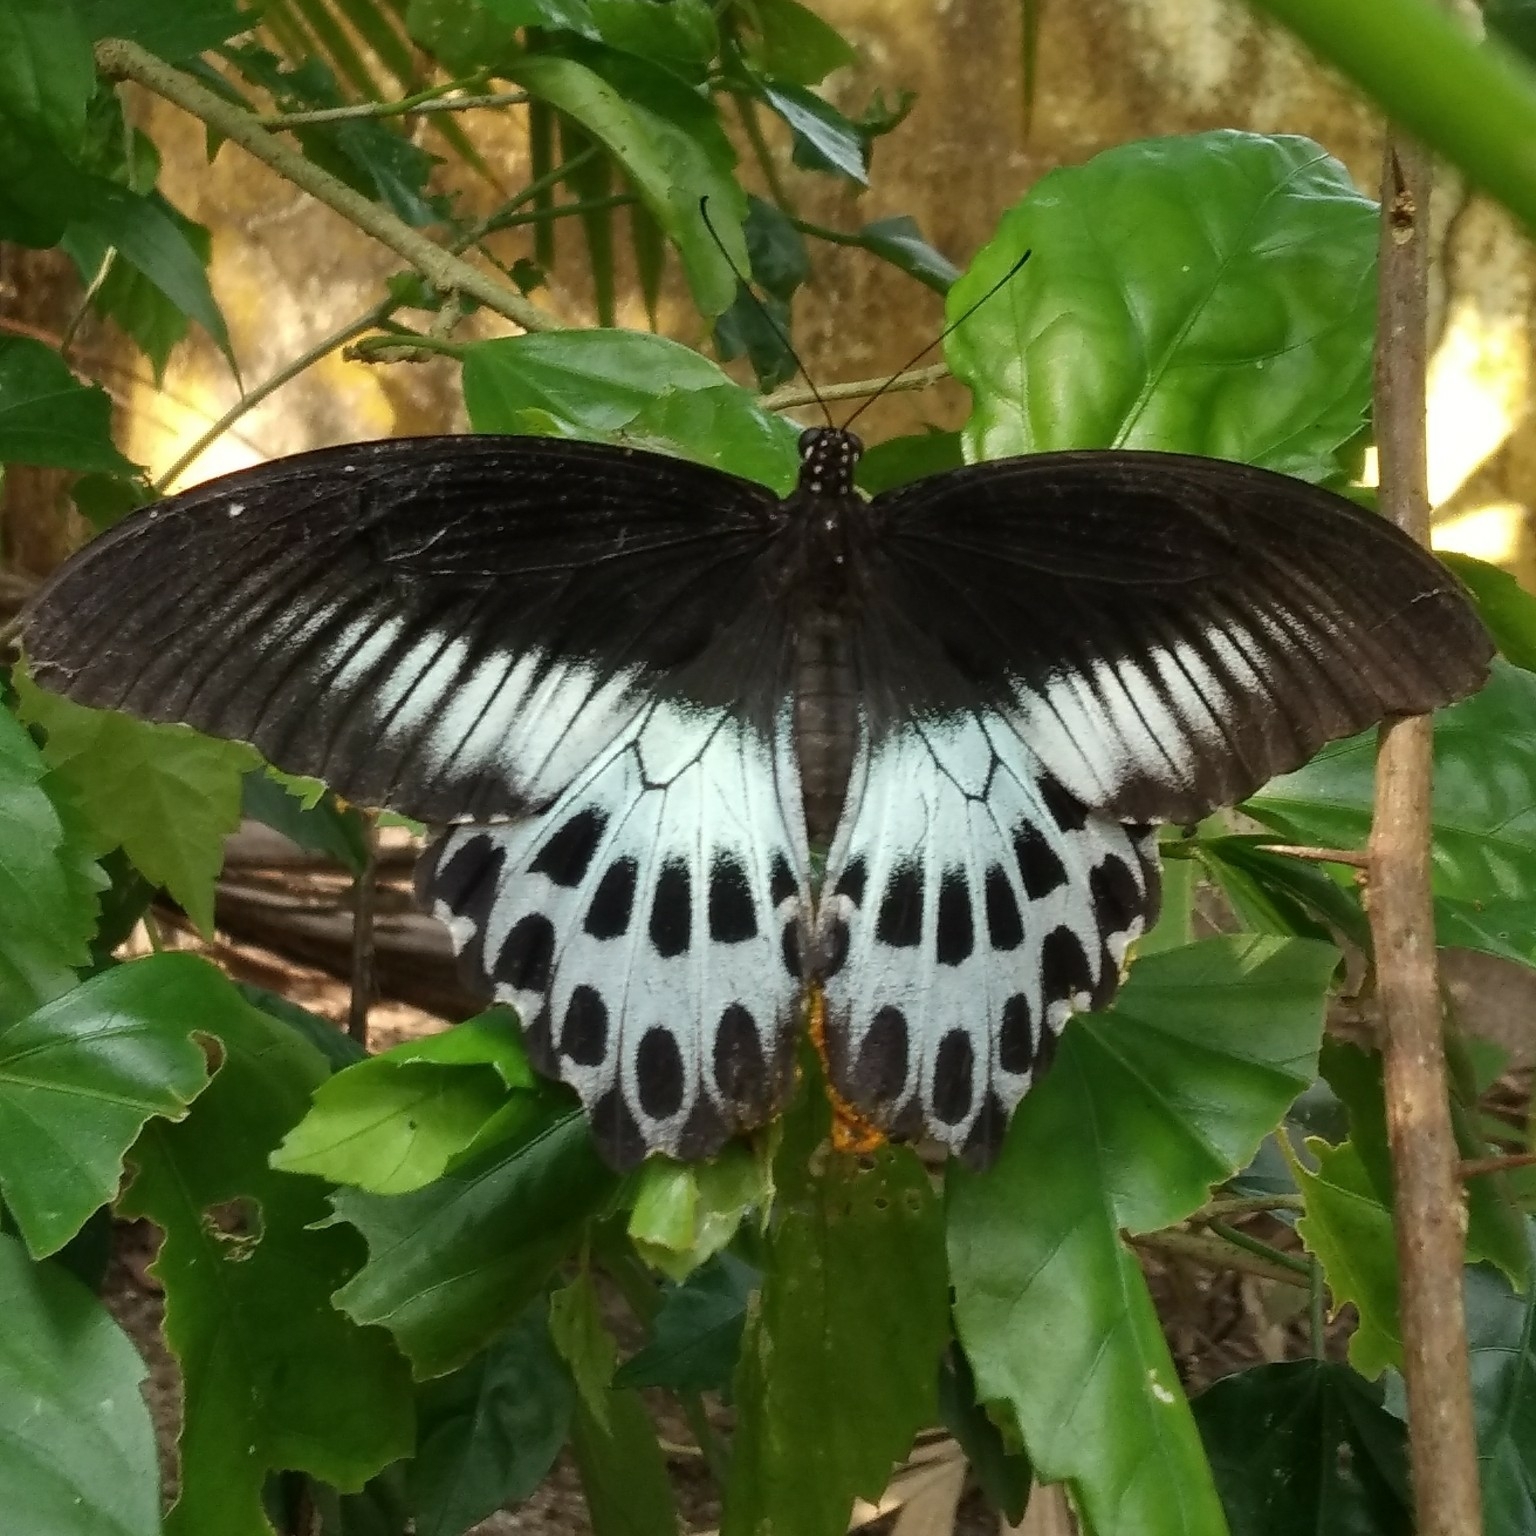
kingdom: Animalia
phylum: Arthropoda
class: Insecta
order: Lepidoptera
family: Papilionidae
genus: Papilio
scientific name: Papilio memnon
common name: Great mormon
